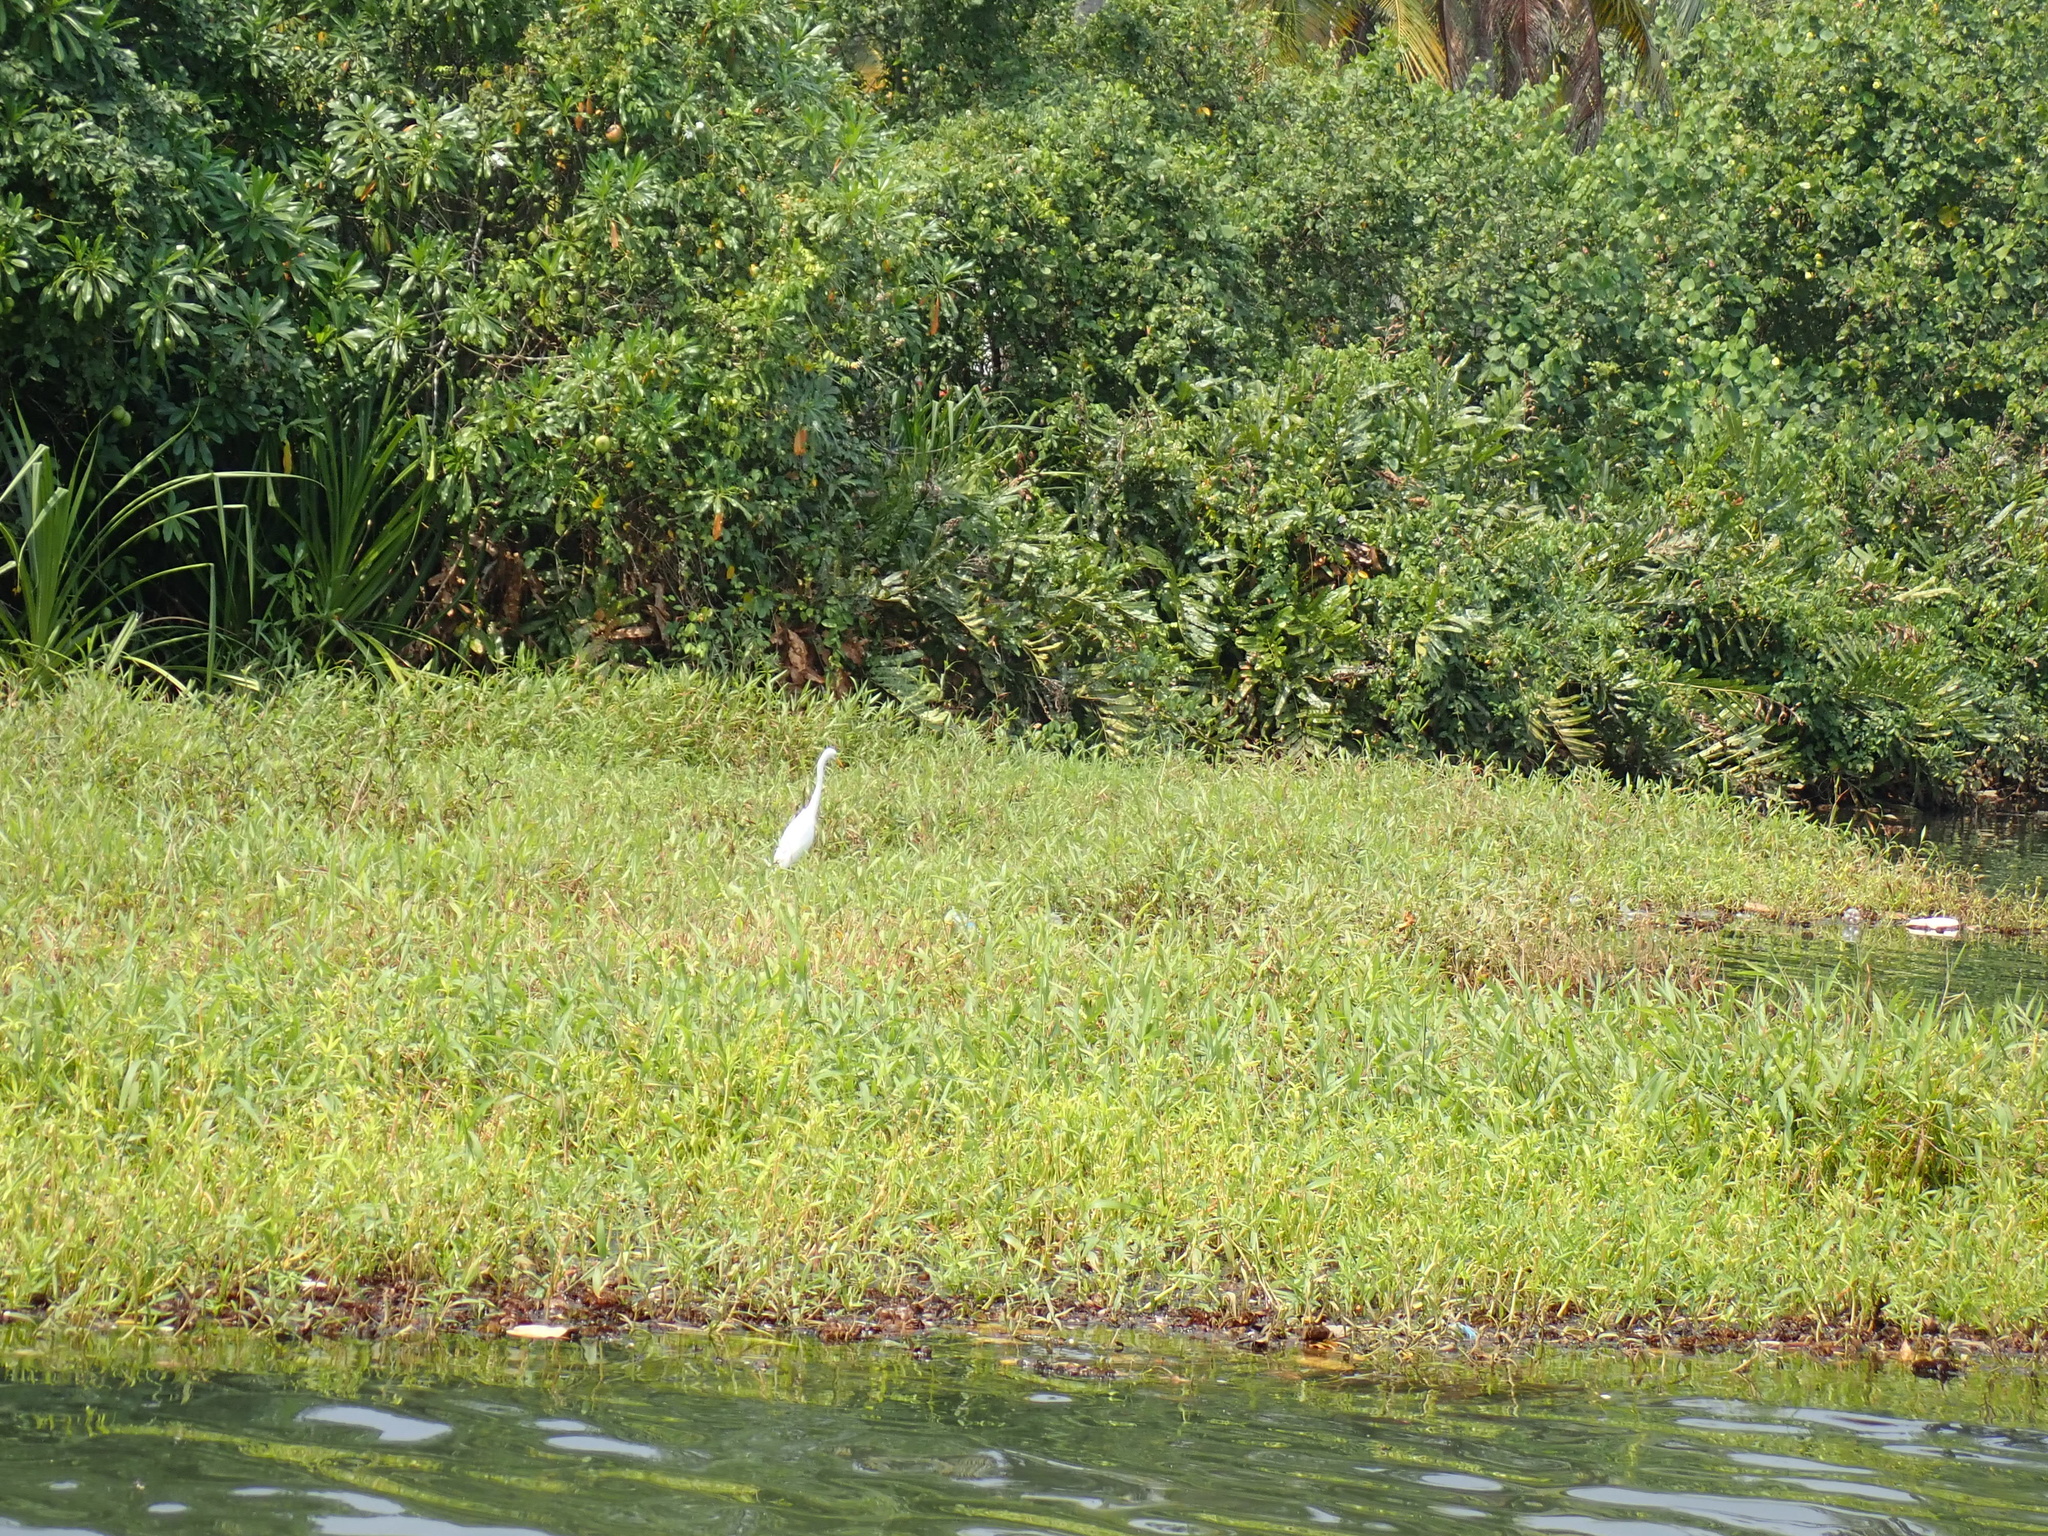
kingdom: Animalia
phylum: Chordata
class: Aves
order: Pelecaniformes
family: Ardeidae
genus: Egretta
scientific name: Egretta intermedia
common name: Intermediate egret
